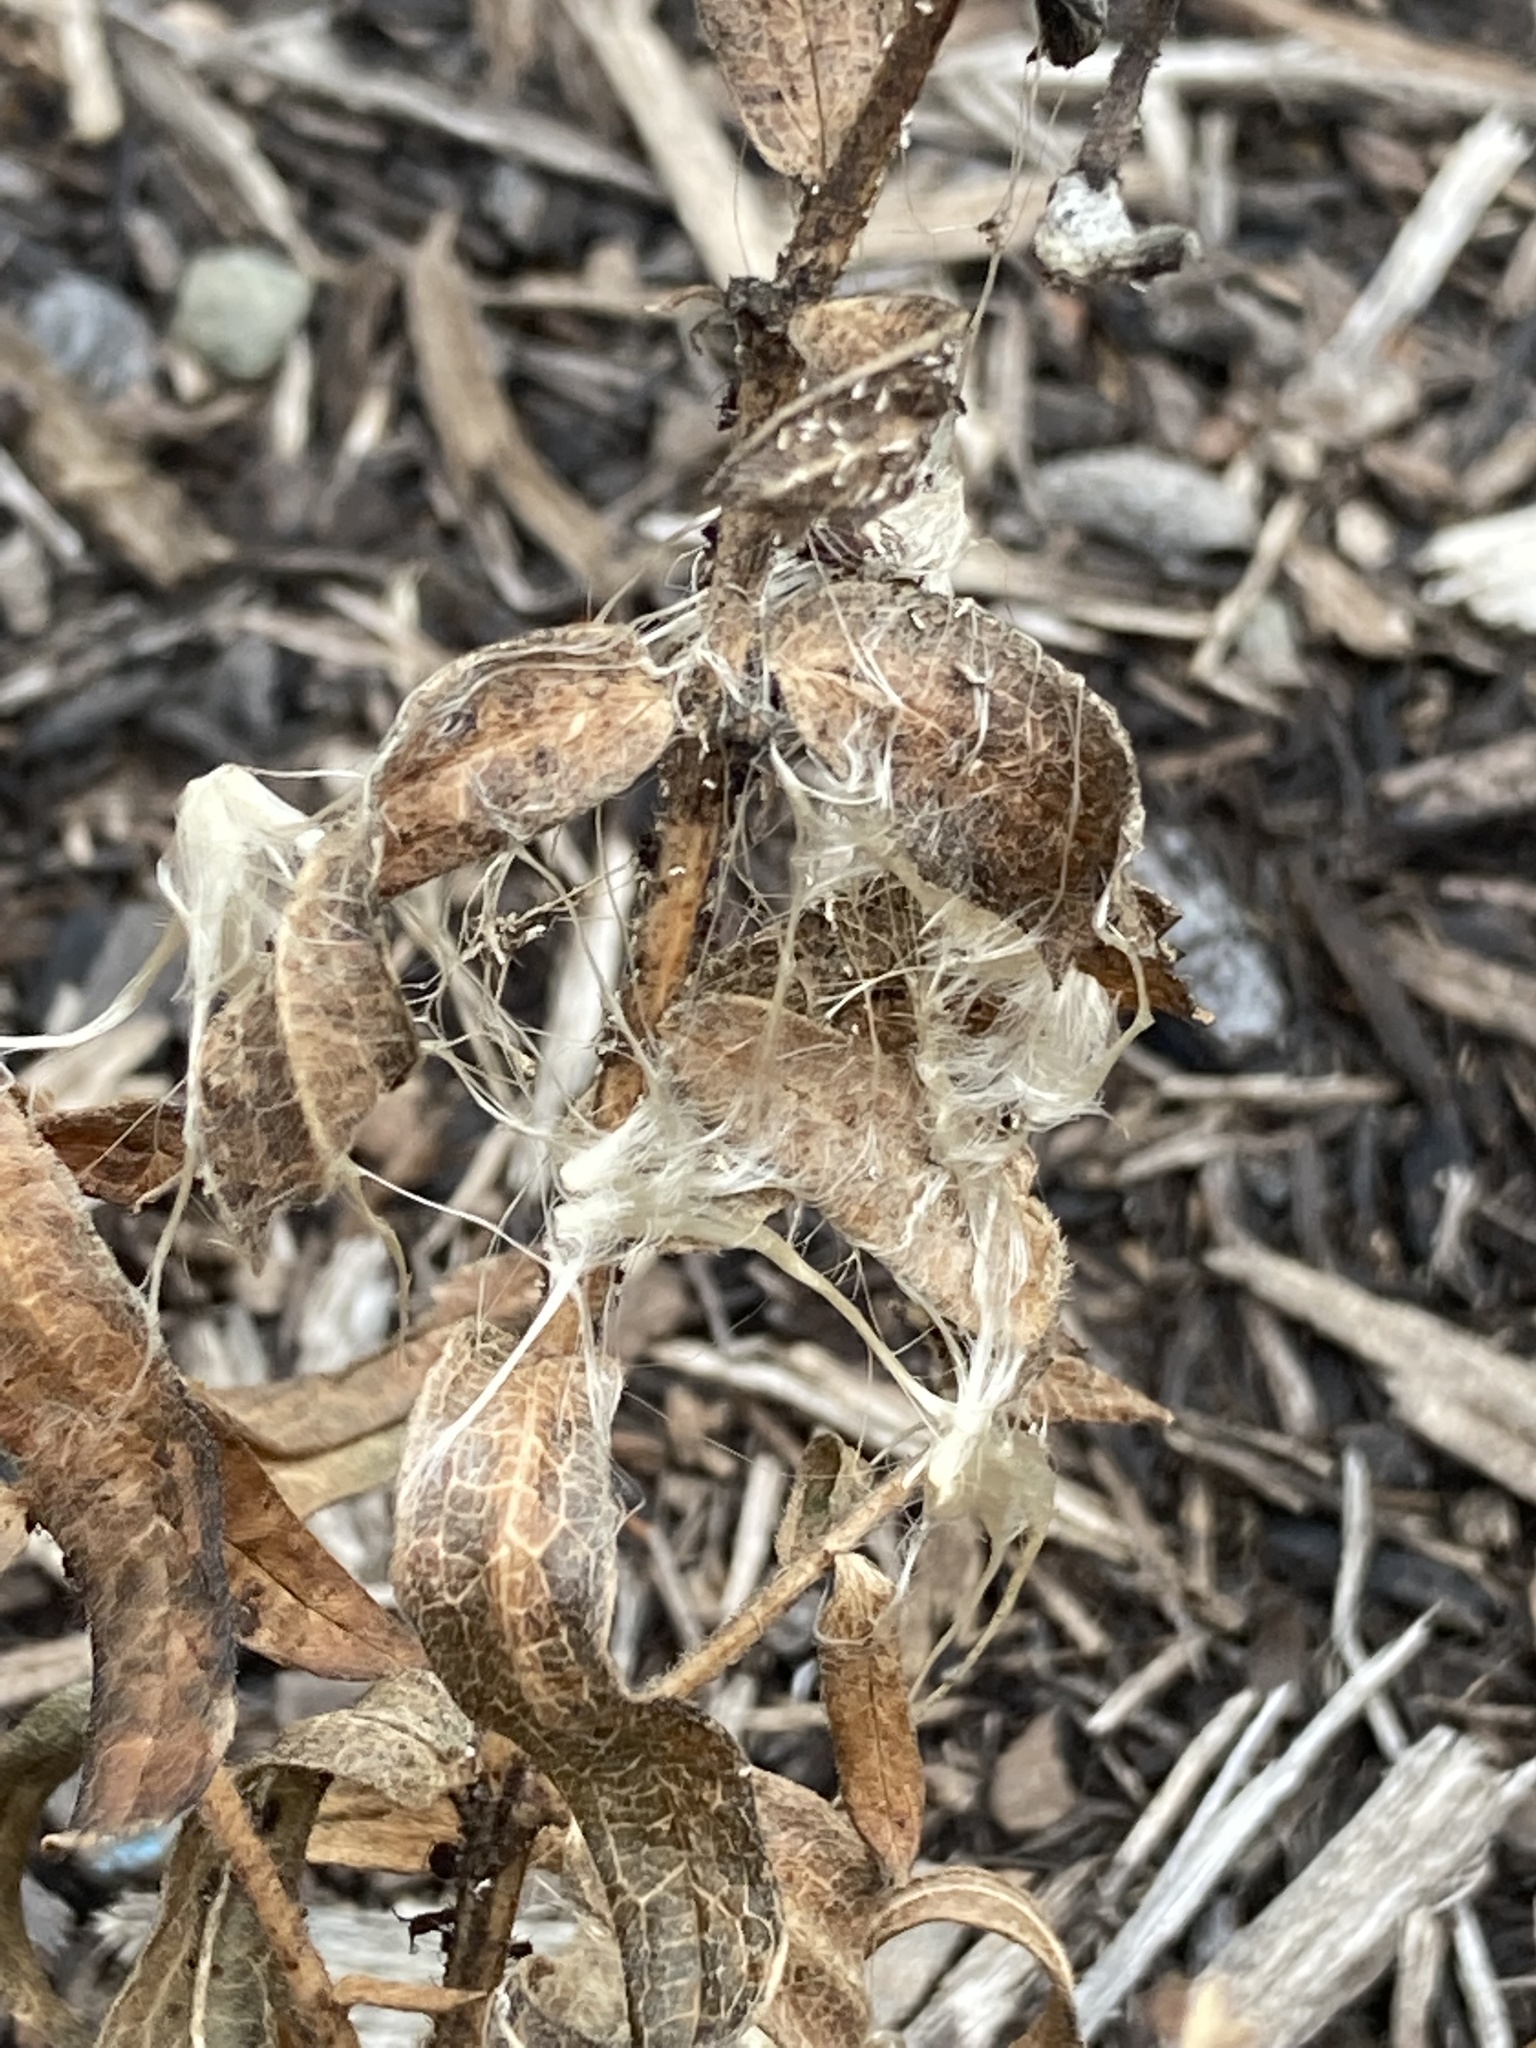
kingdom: Plantae
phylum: Tracheophyta
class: Magnoliopsida
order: Gentianales
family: Apocynaceae
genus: Asclepias
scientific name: Asclepias tuberosa
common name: Butterfly milkweed
